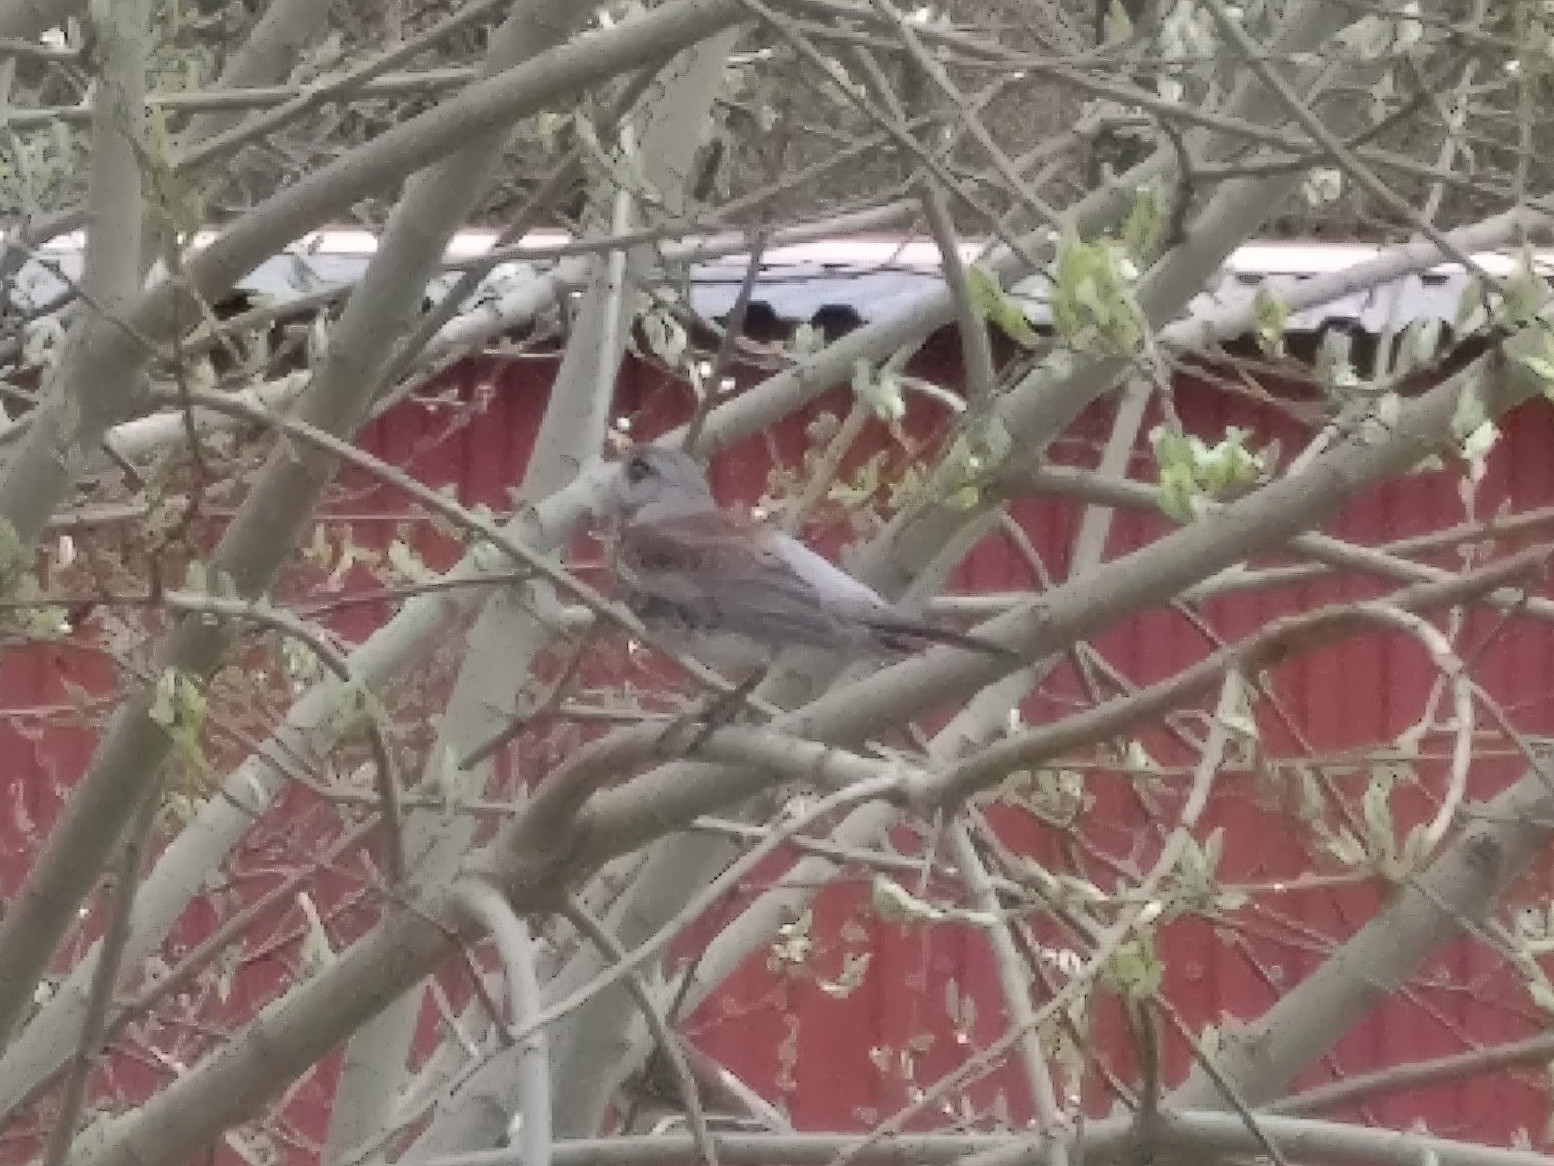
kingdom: Animalia
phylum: Chordata
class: Aves
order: Passeriformes
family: Turdidae
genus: Turdus
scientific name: Turdus pilaris
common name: Fieldfare
